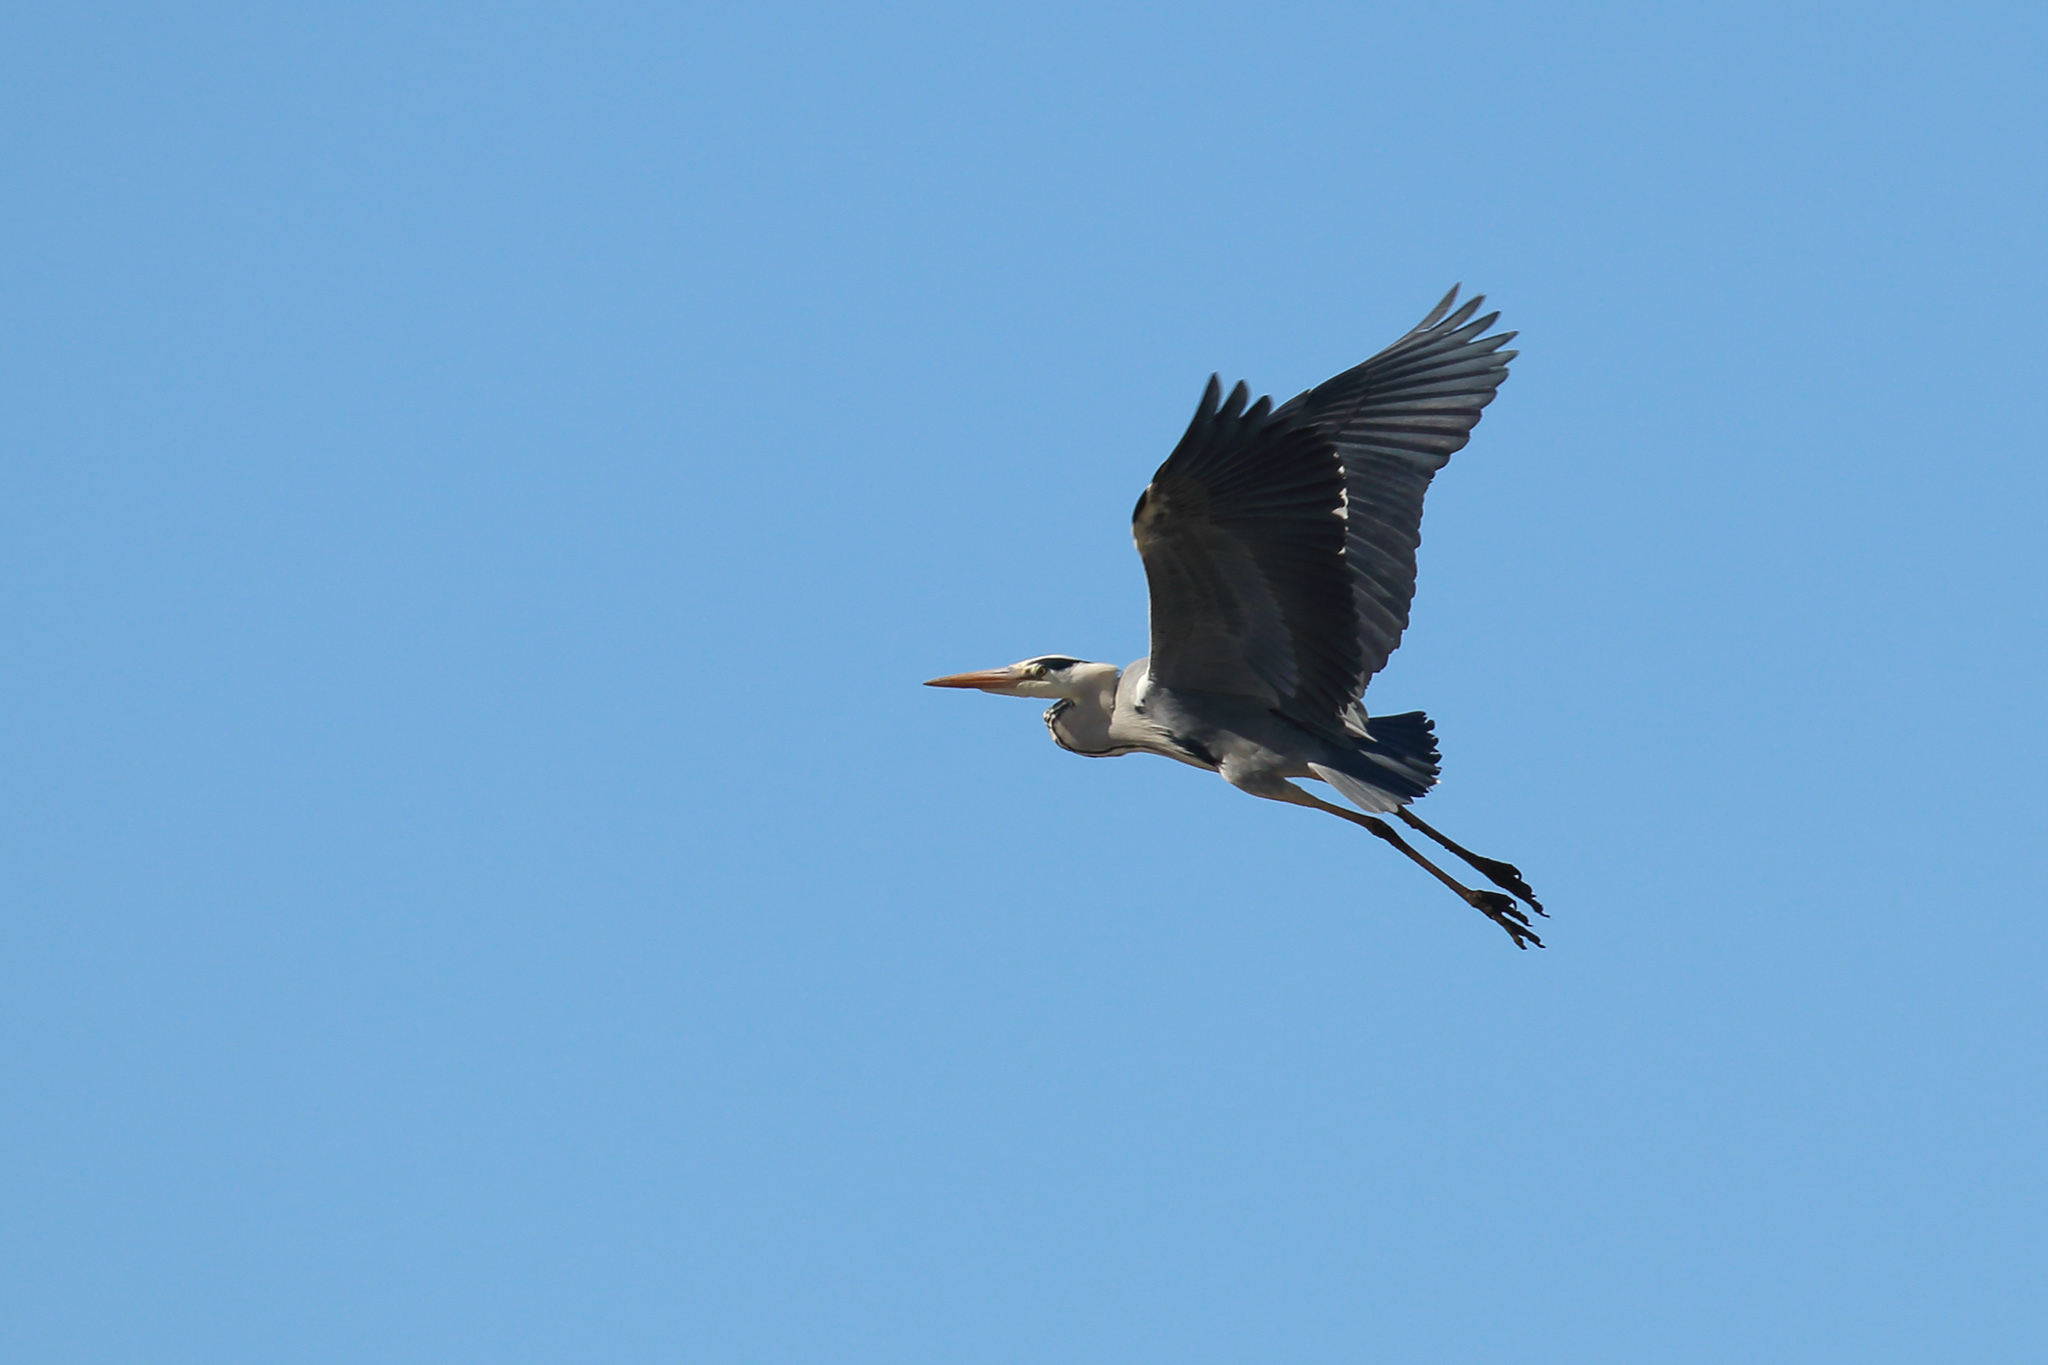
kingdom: Animalia
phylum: Chordata
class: Aves
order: Pelecaniformes
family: Ardeidae
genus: Ardea
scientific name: Ardea cinerea
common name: Grey heron
